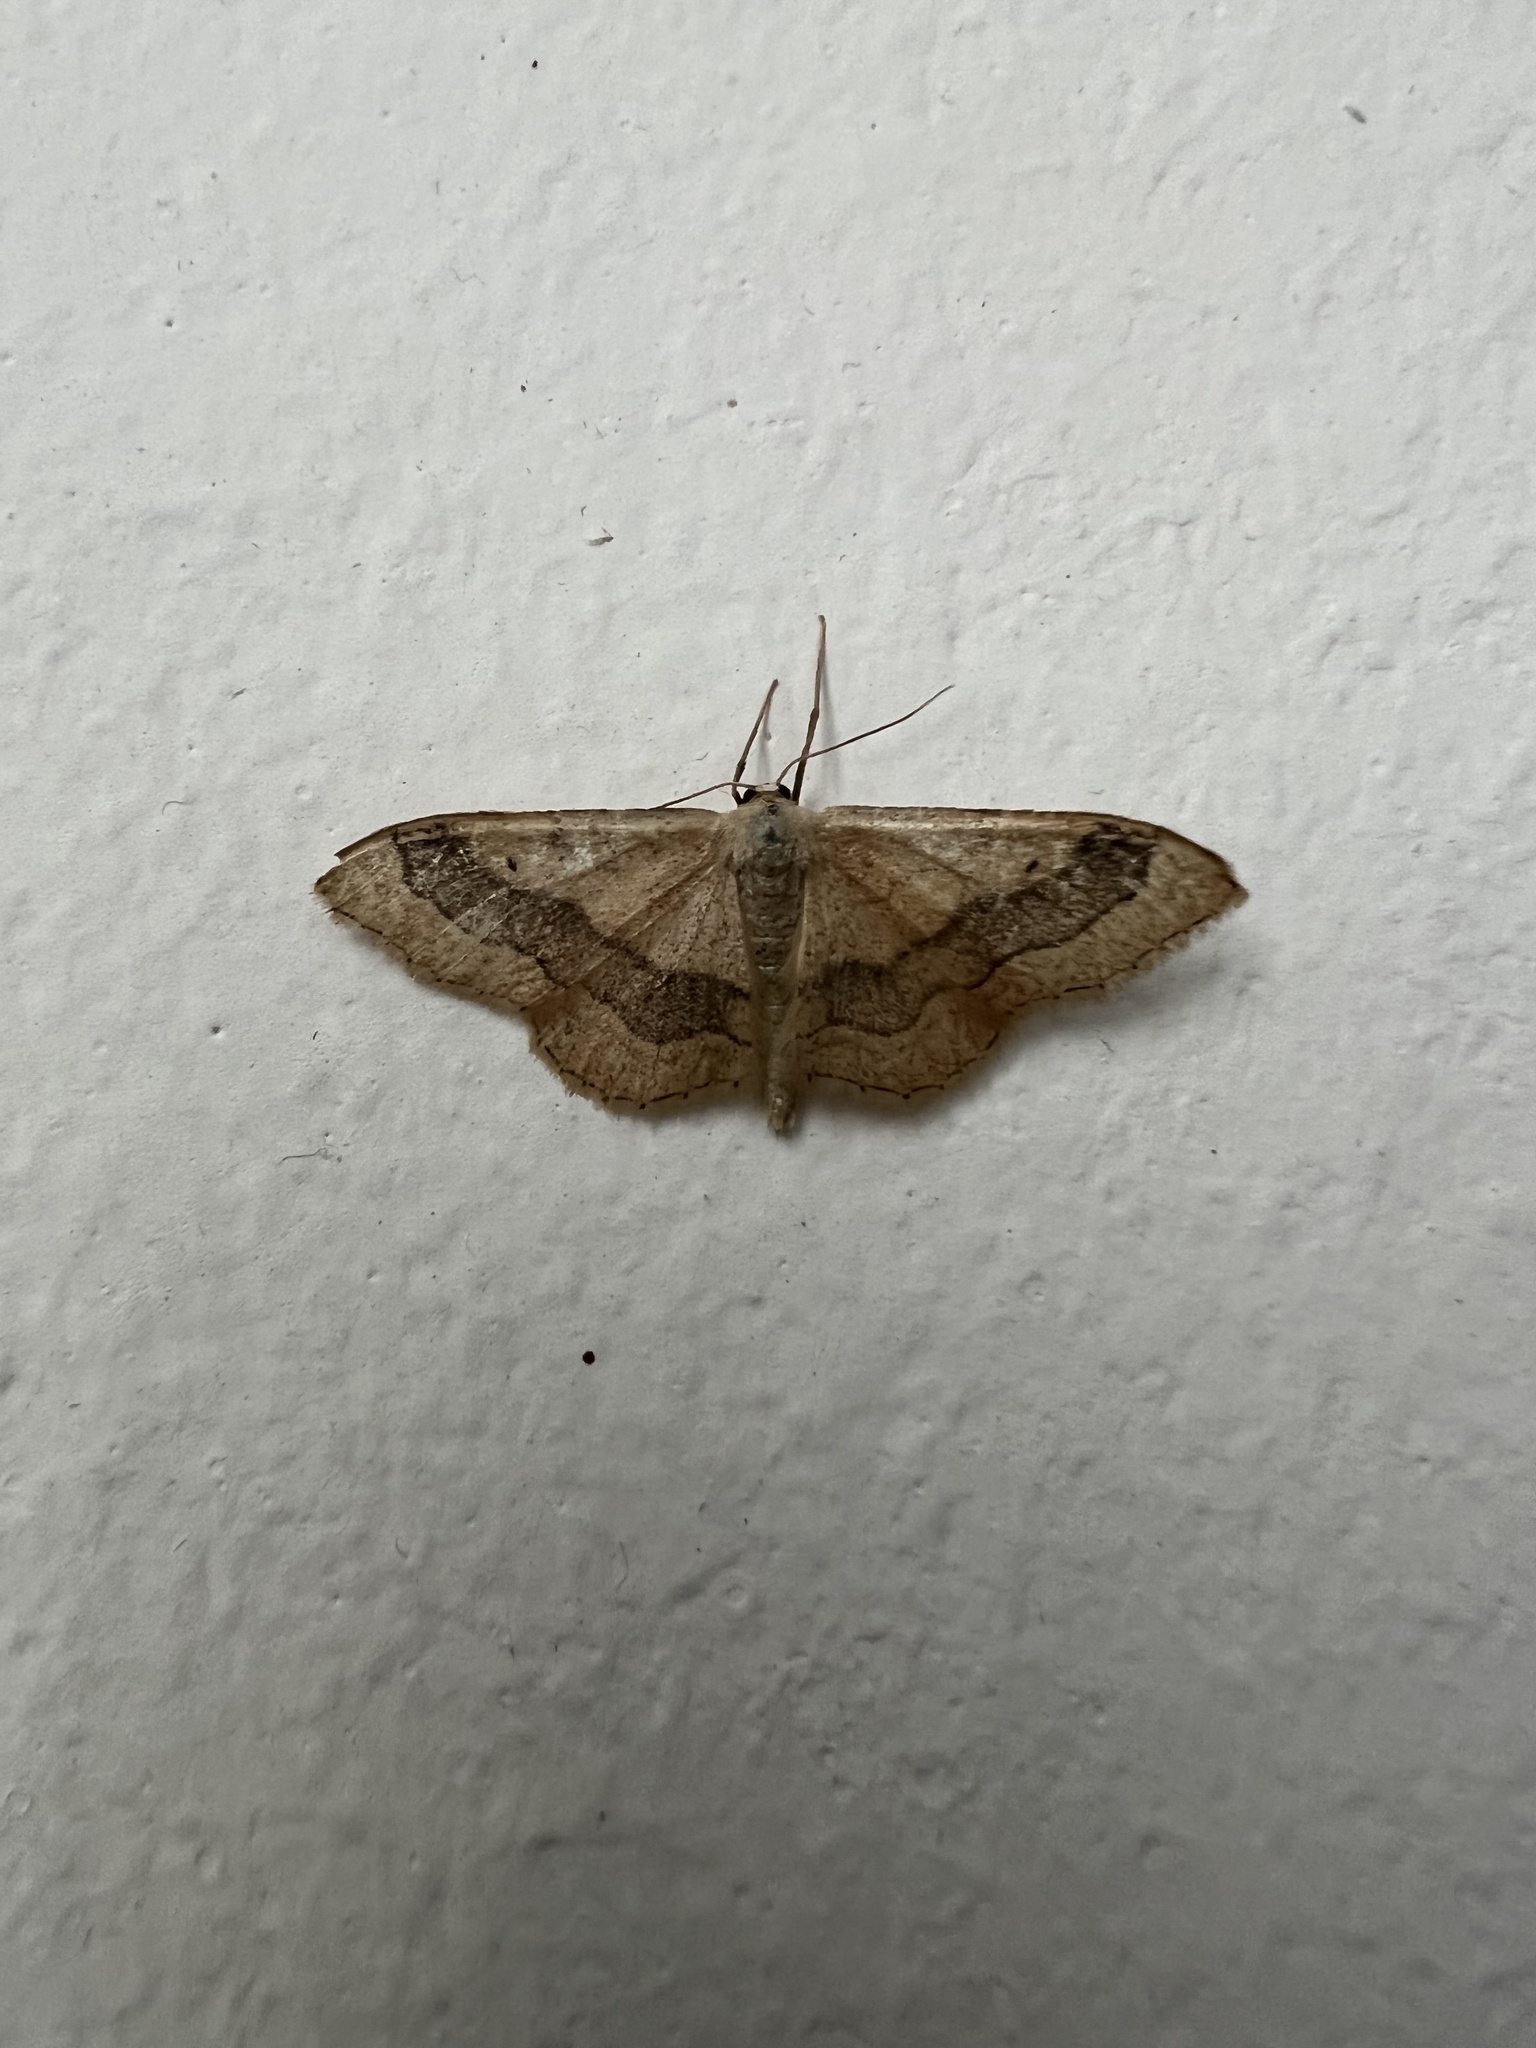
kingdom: Animalia
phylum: Arthropoda
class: Insecta
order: Lepidoptera
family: Geometridae
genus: Idaea
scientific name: Idaea aversata
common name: Riband wave
